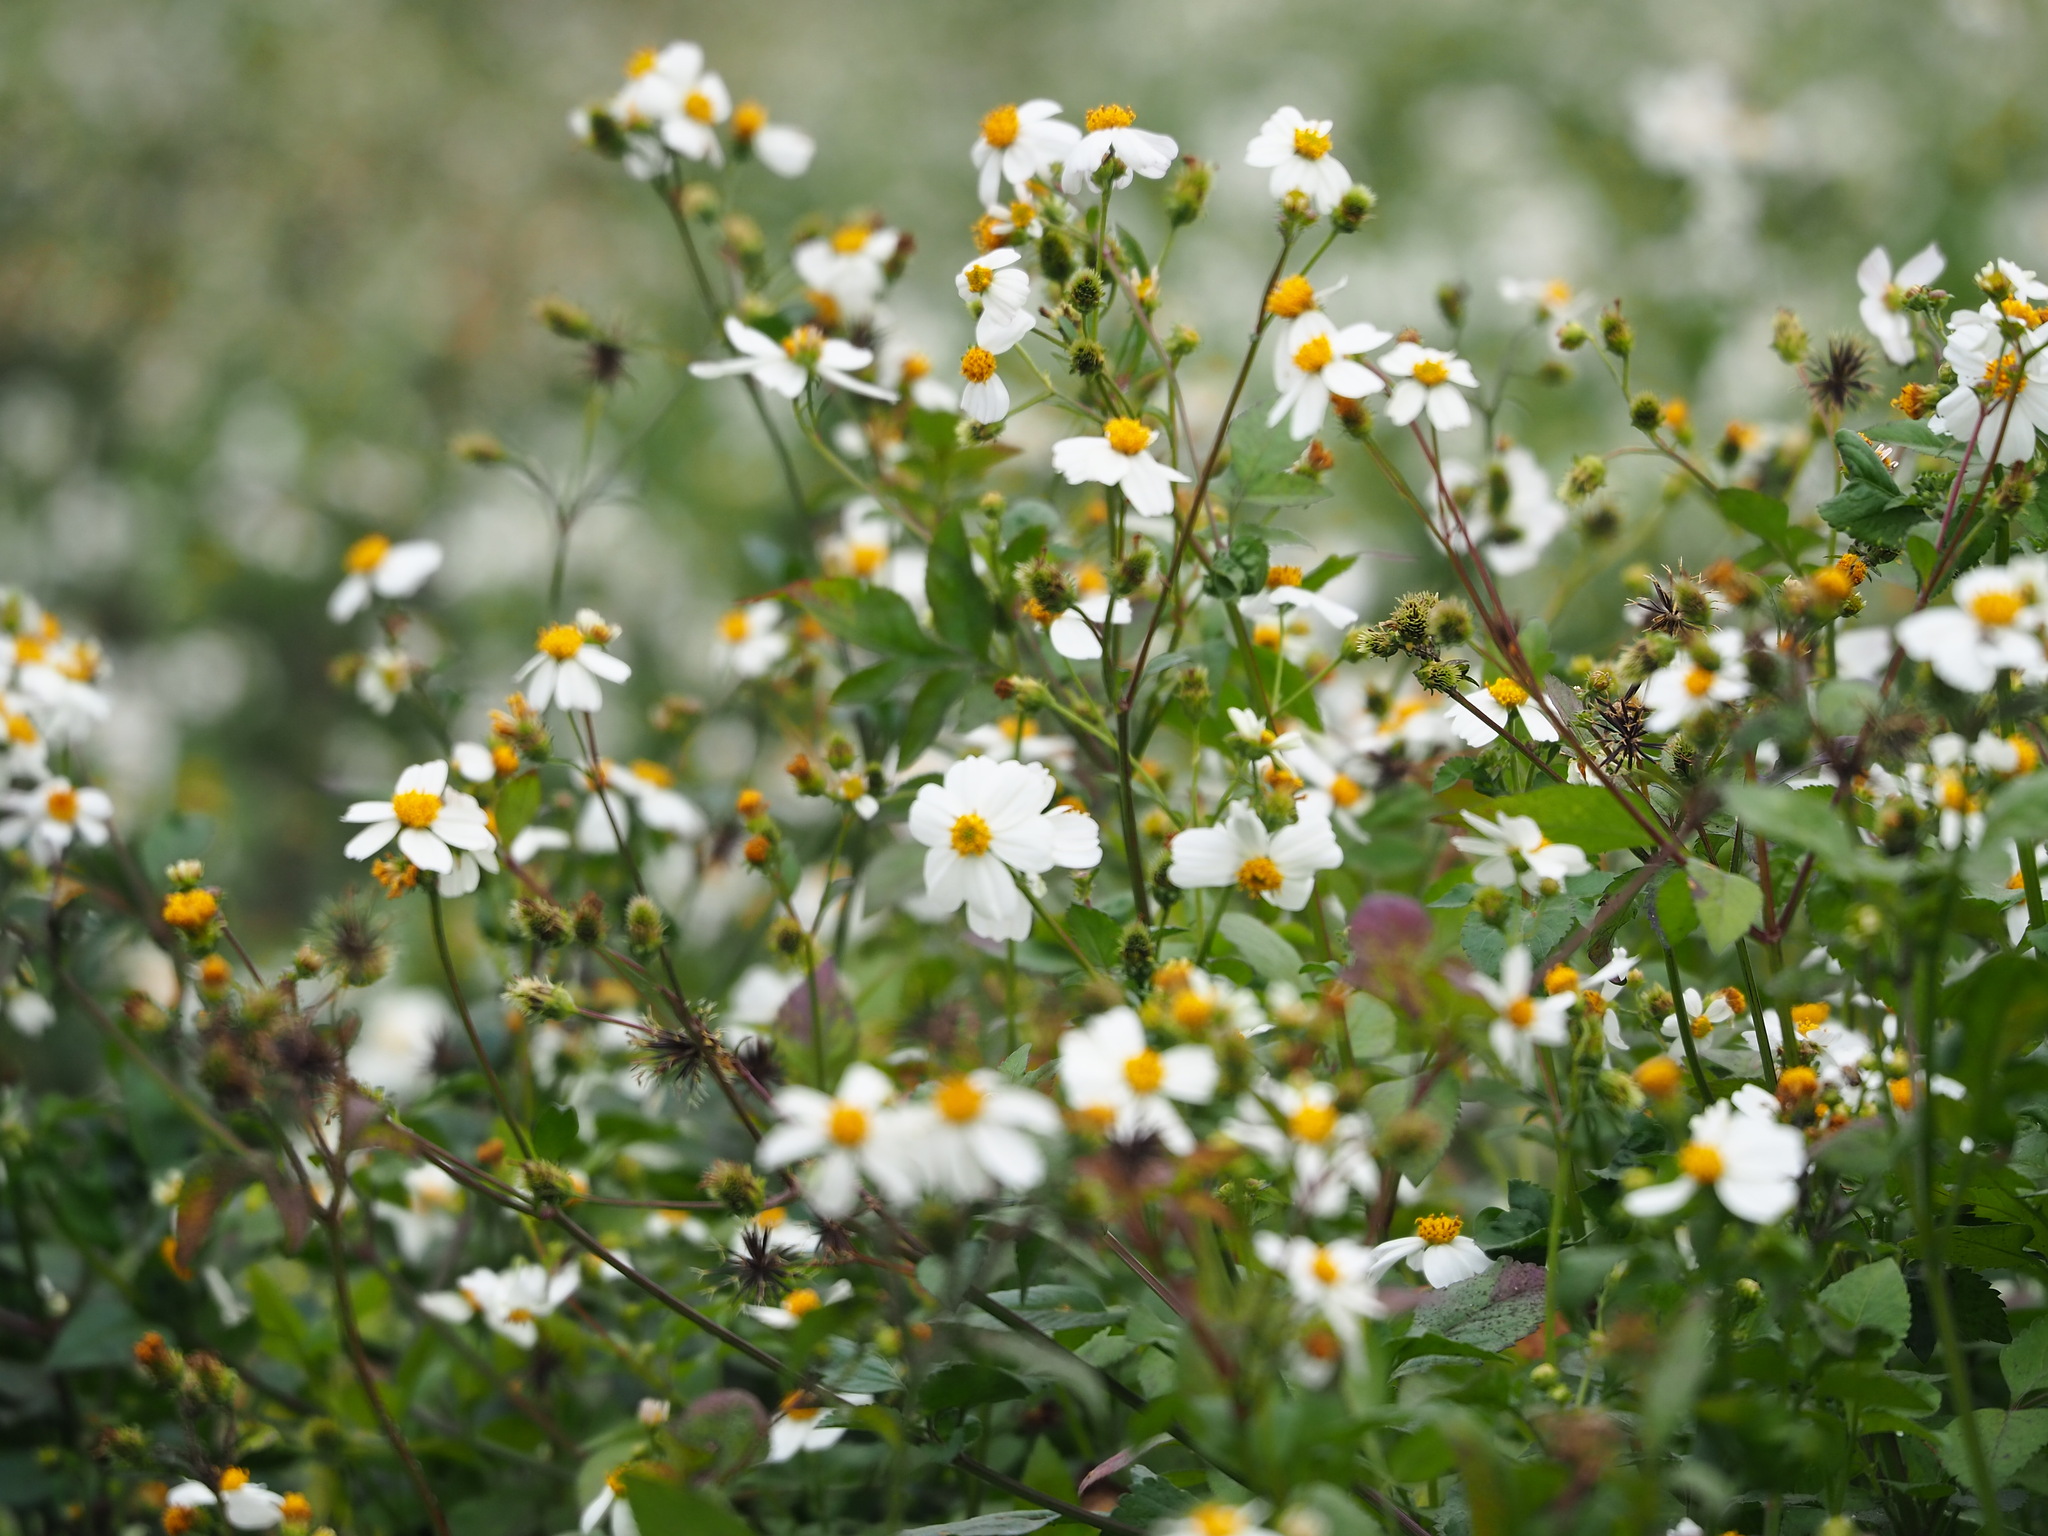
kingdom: Plantae
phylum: Tracheophyta
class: Magnoliopsida
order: Asterales
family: Asteraceae
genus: Bidens
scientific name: Bidens alba
